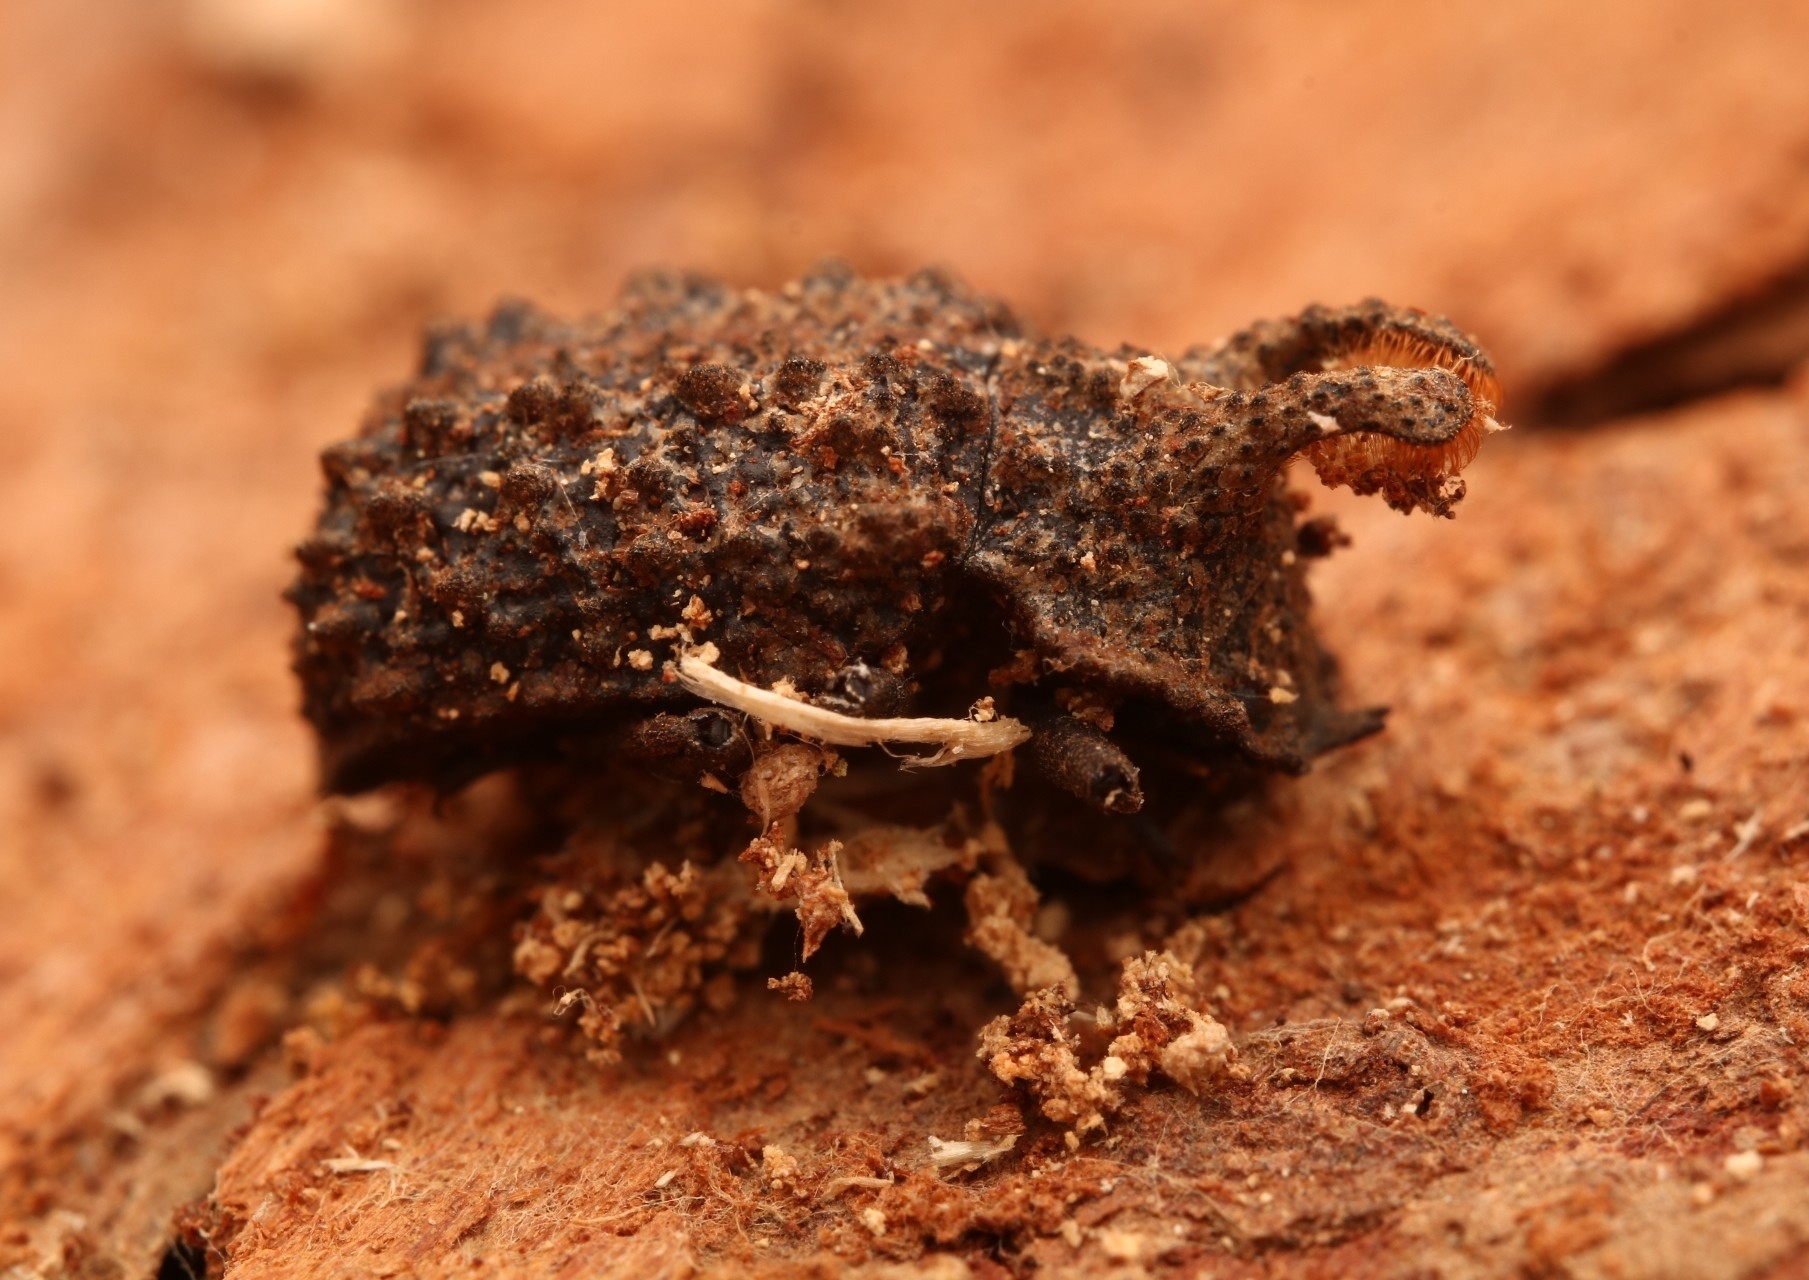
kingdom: Animalia
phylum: Arthropoda
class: Insecta
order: Coleoptera
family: Tenebrionidae
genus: Gnatocerus
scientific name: Gnatocerus cornutus
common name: Broad-horned flour beetle
